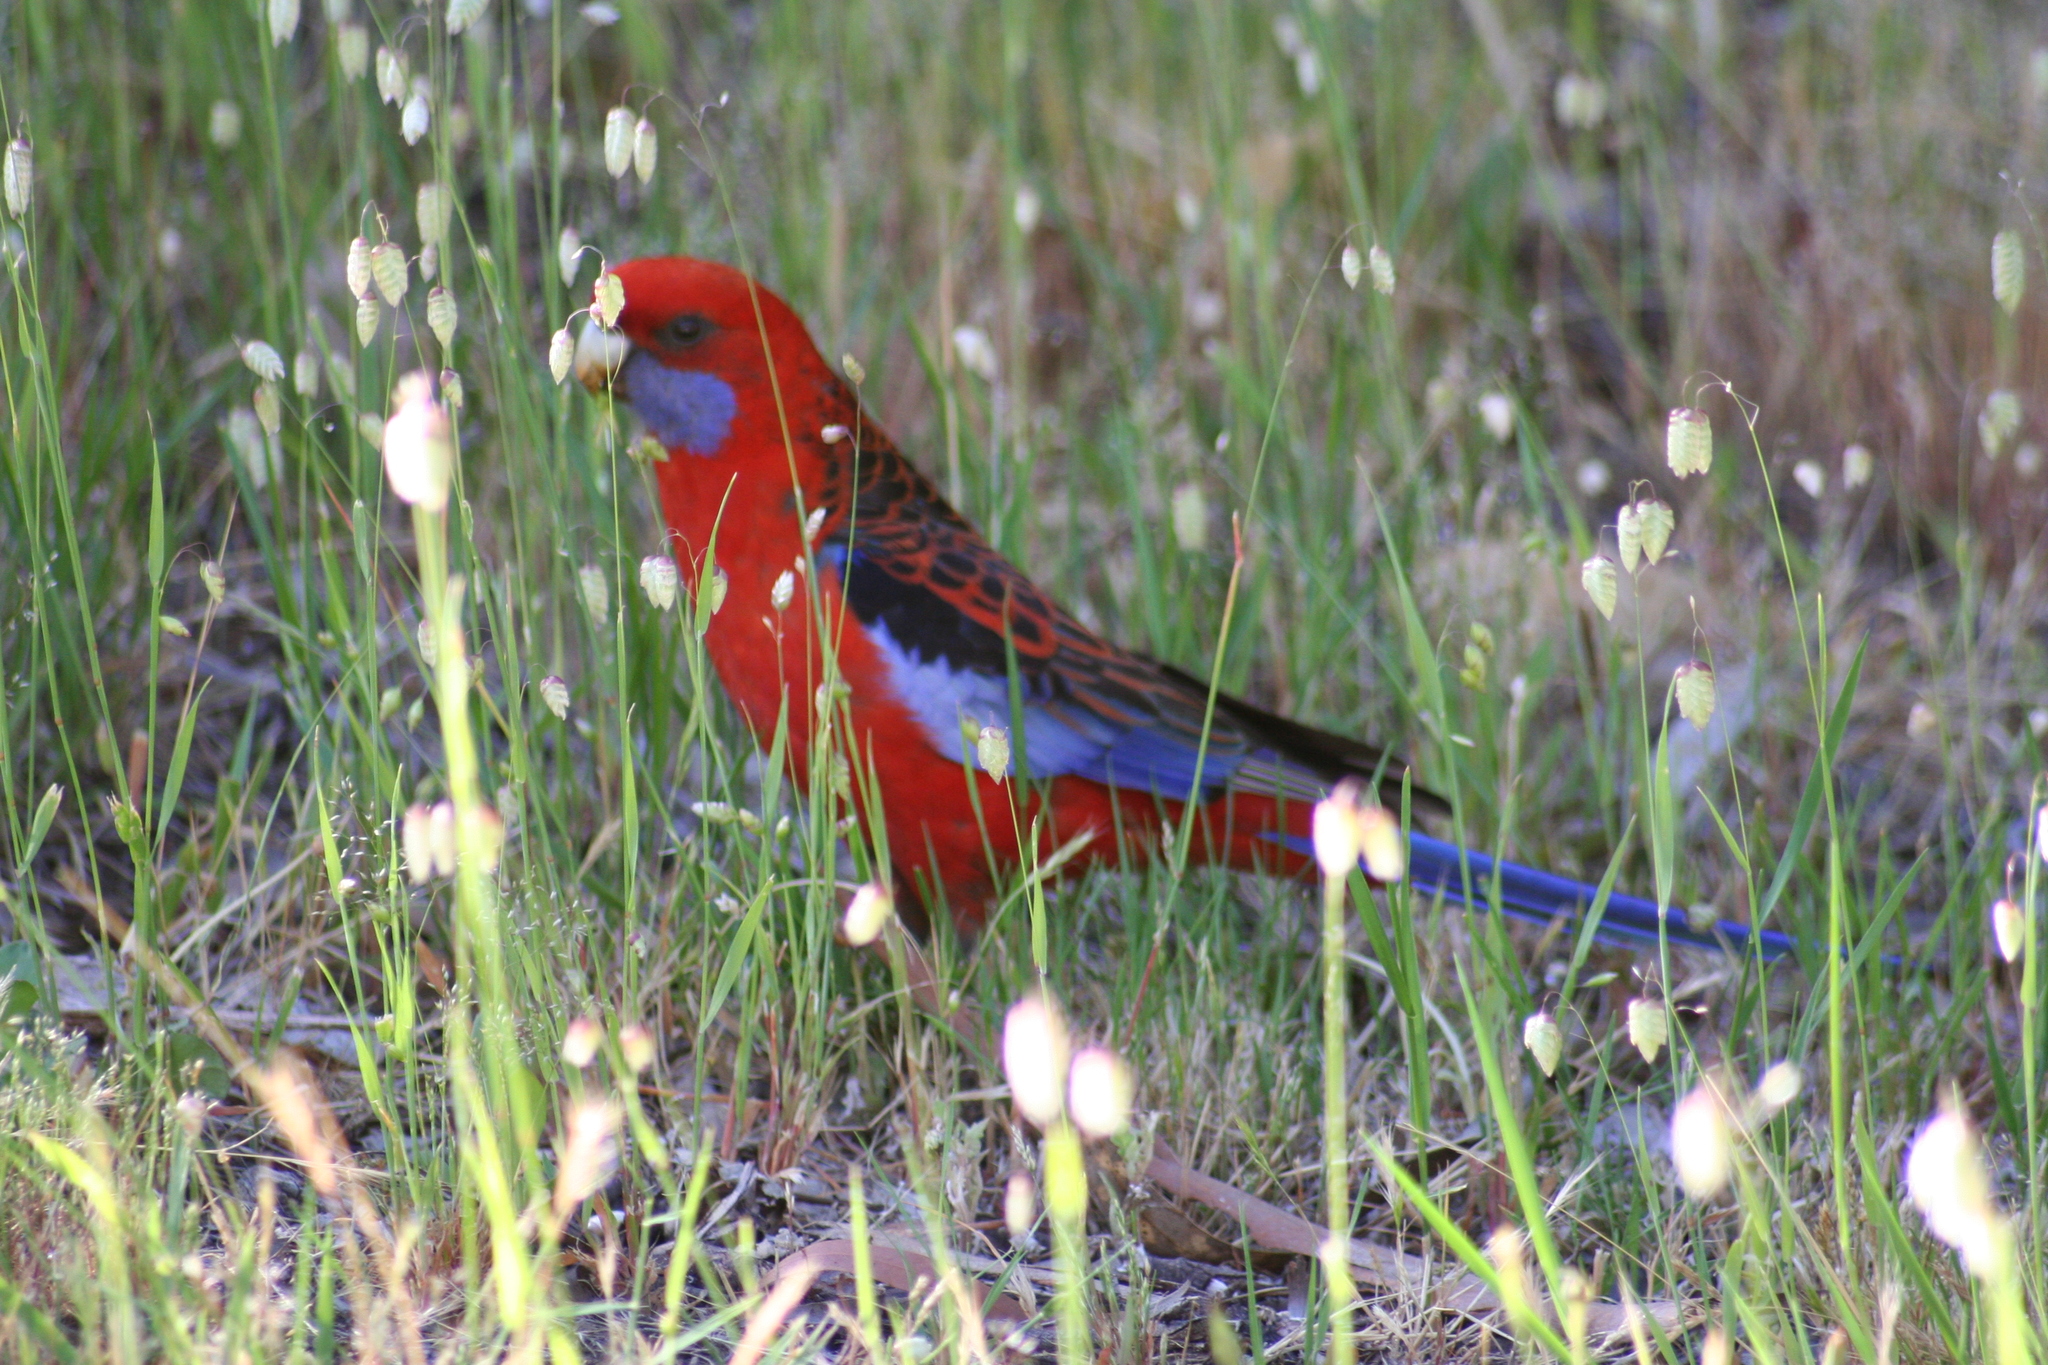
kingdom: Animalia
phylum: Chordata
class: Aves
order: Psittaciformes
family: Psittacidae
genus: Platycercus
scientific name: Platycercus elegans
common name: Crimson rosella
